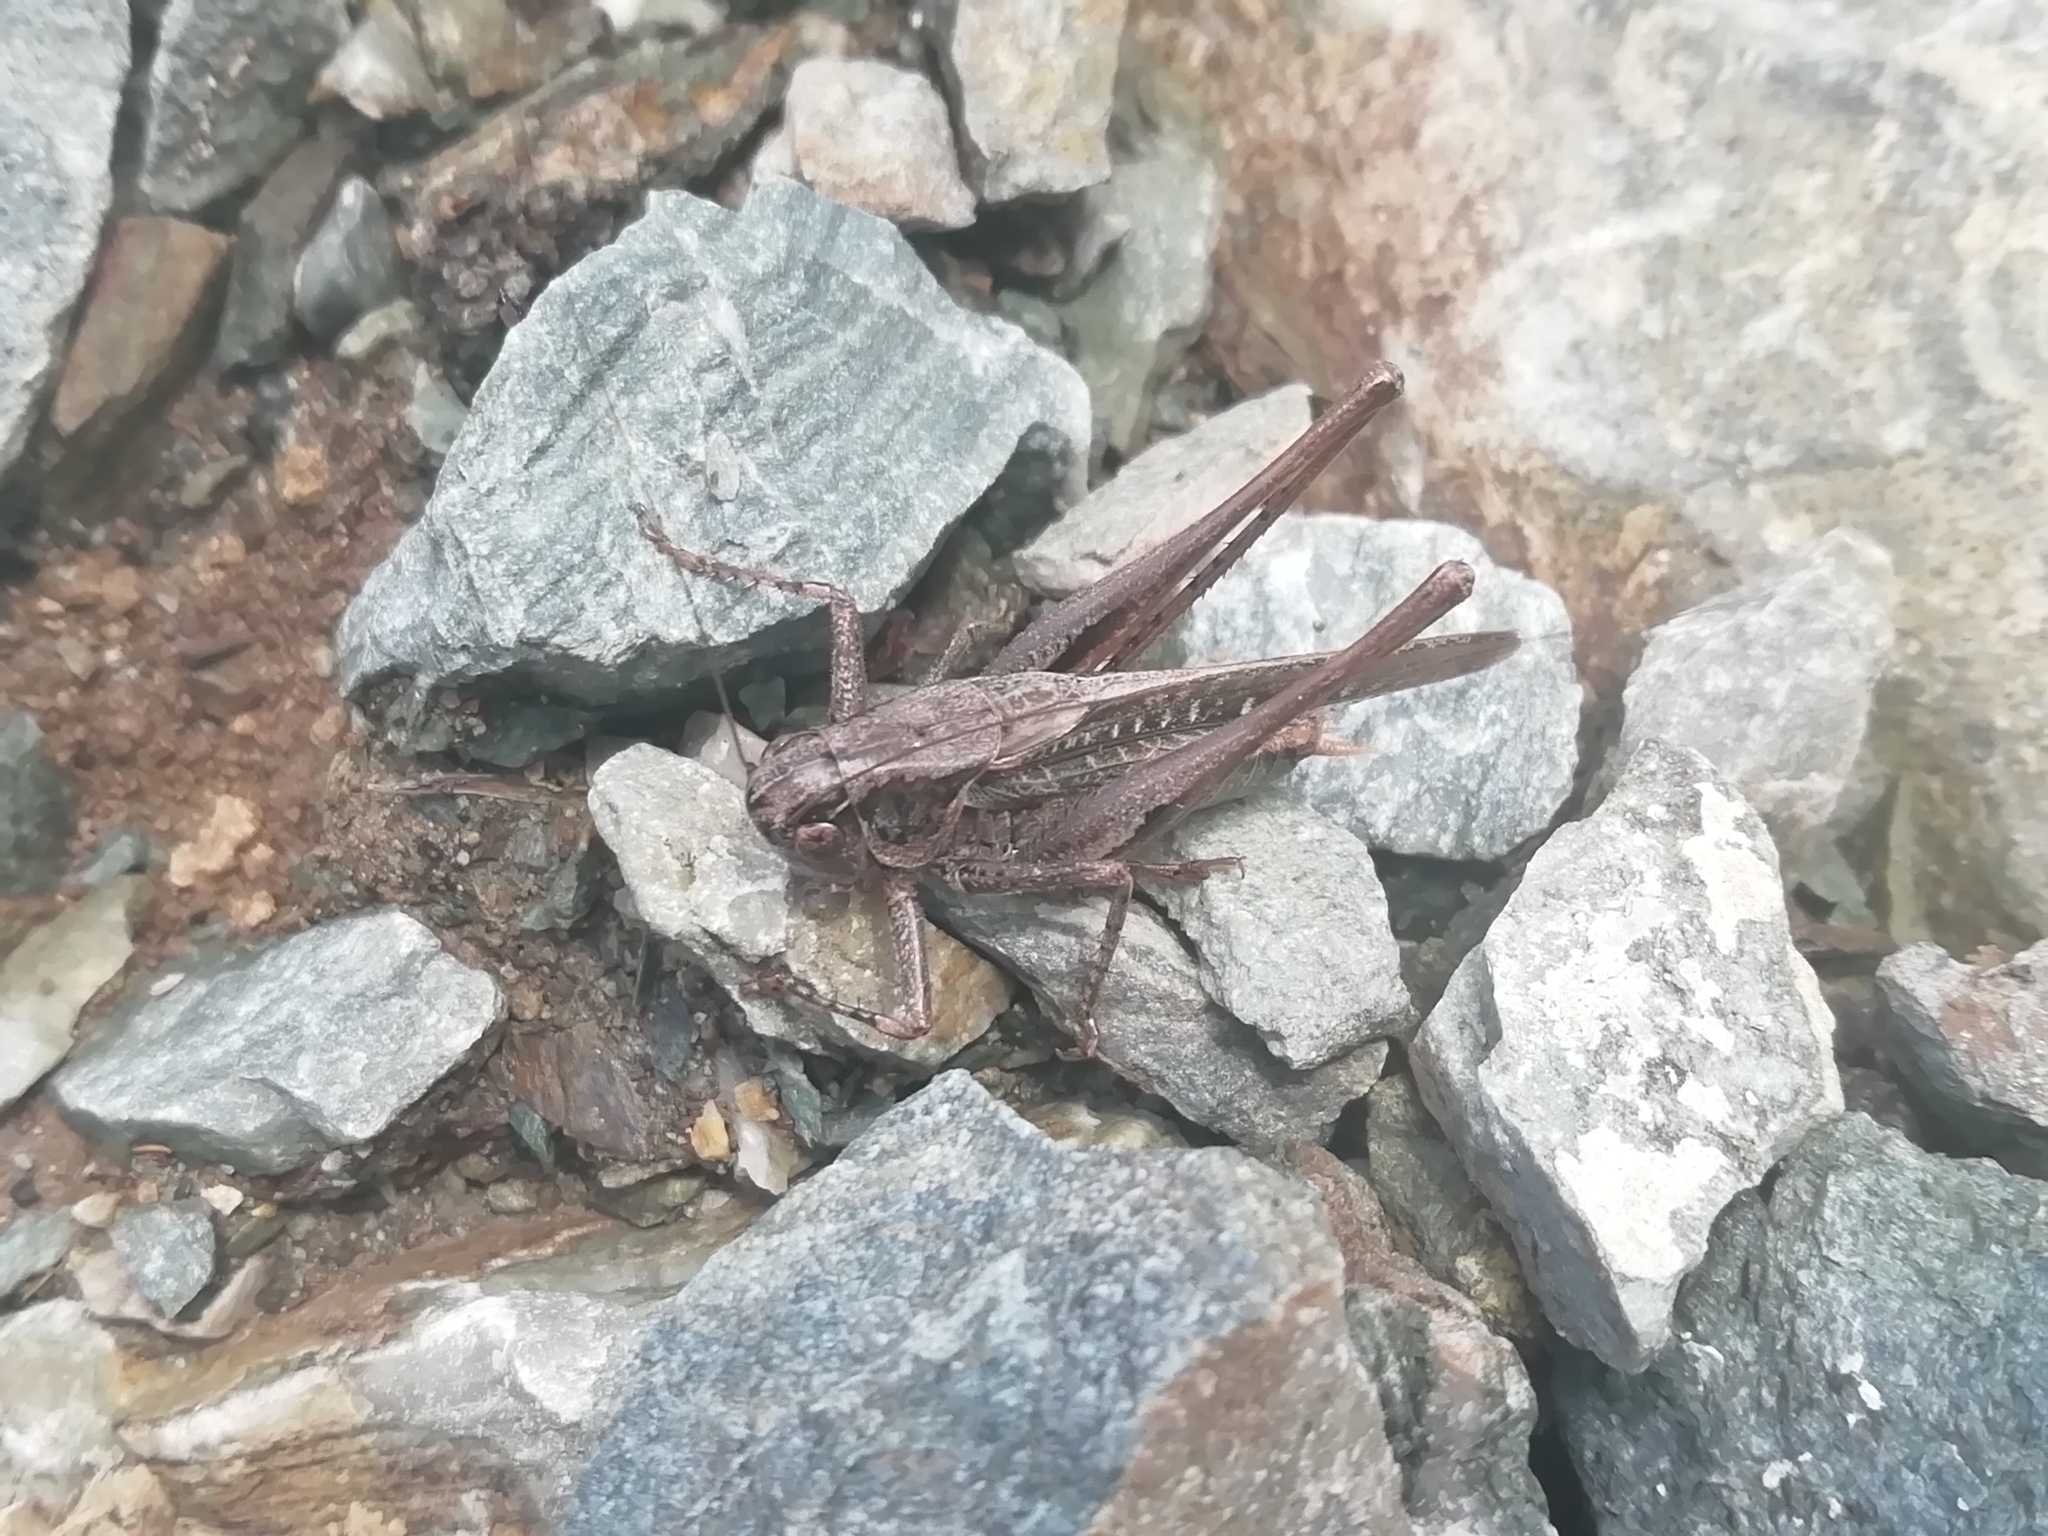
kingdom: Animalia
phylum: Arthropoda
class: Insecta
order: Orthoptera
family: Tettigoniidae
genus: Platycleis
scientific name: Platycleis intermedia
